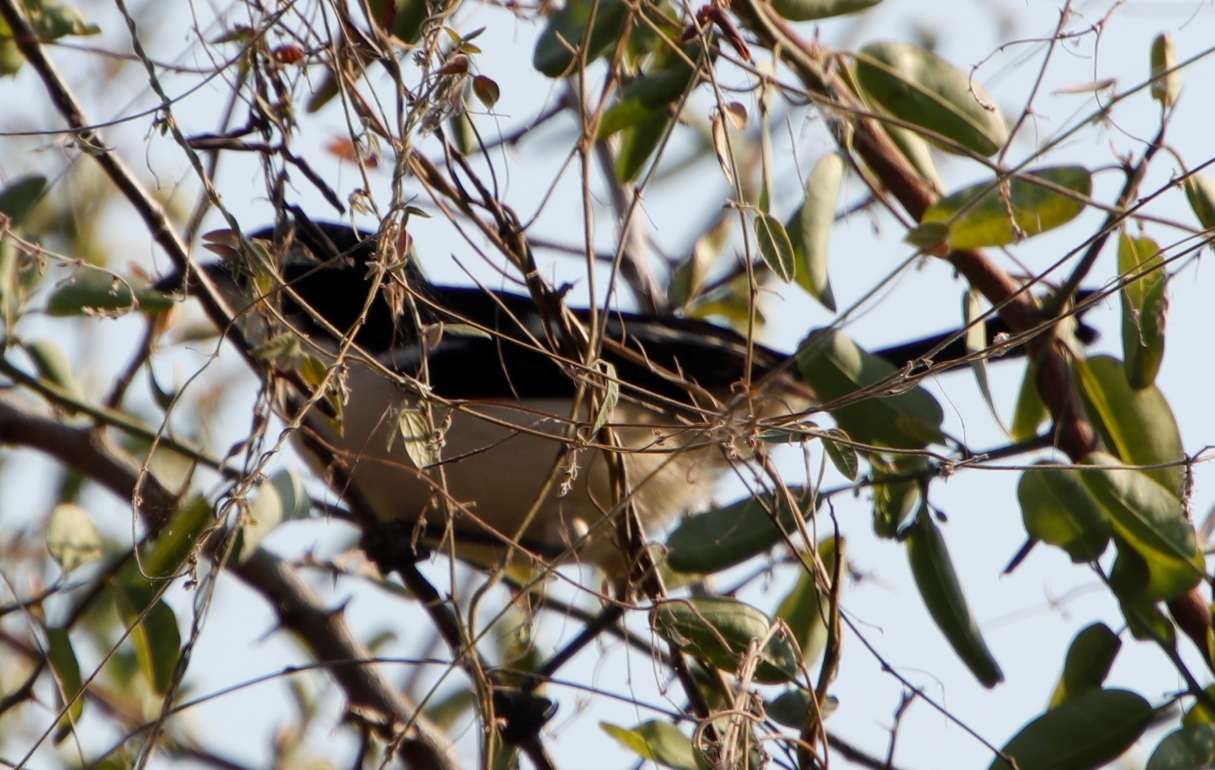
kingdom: Animalia
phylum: Chordata
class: Aves
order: Passeriformes
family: Malaconotidae
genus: Laniarius
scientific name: Laniarius major
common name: Tropical boubou
